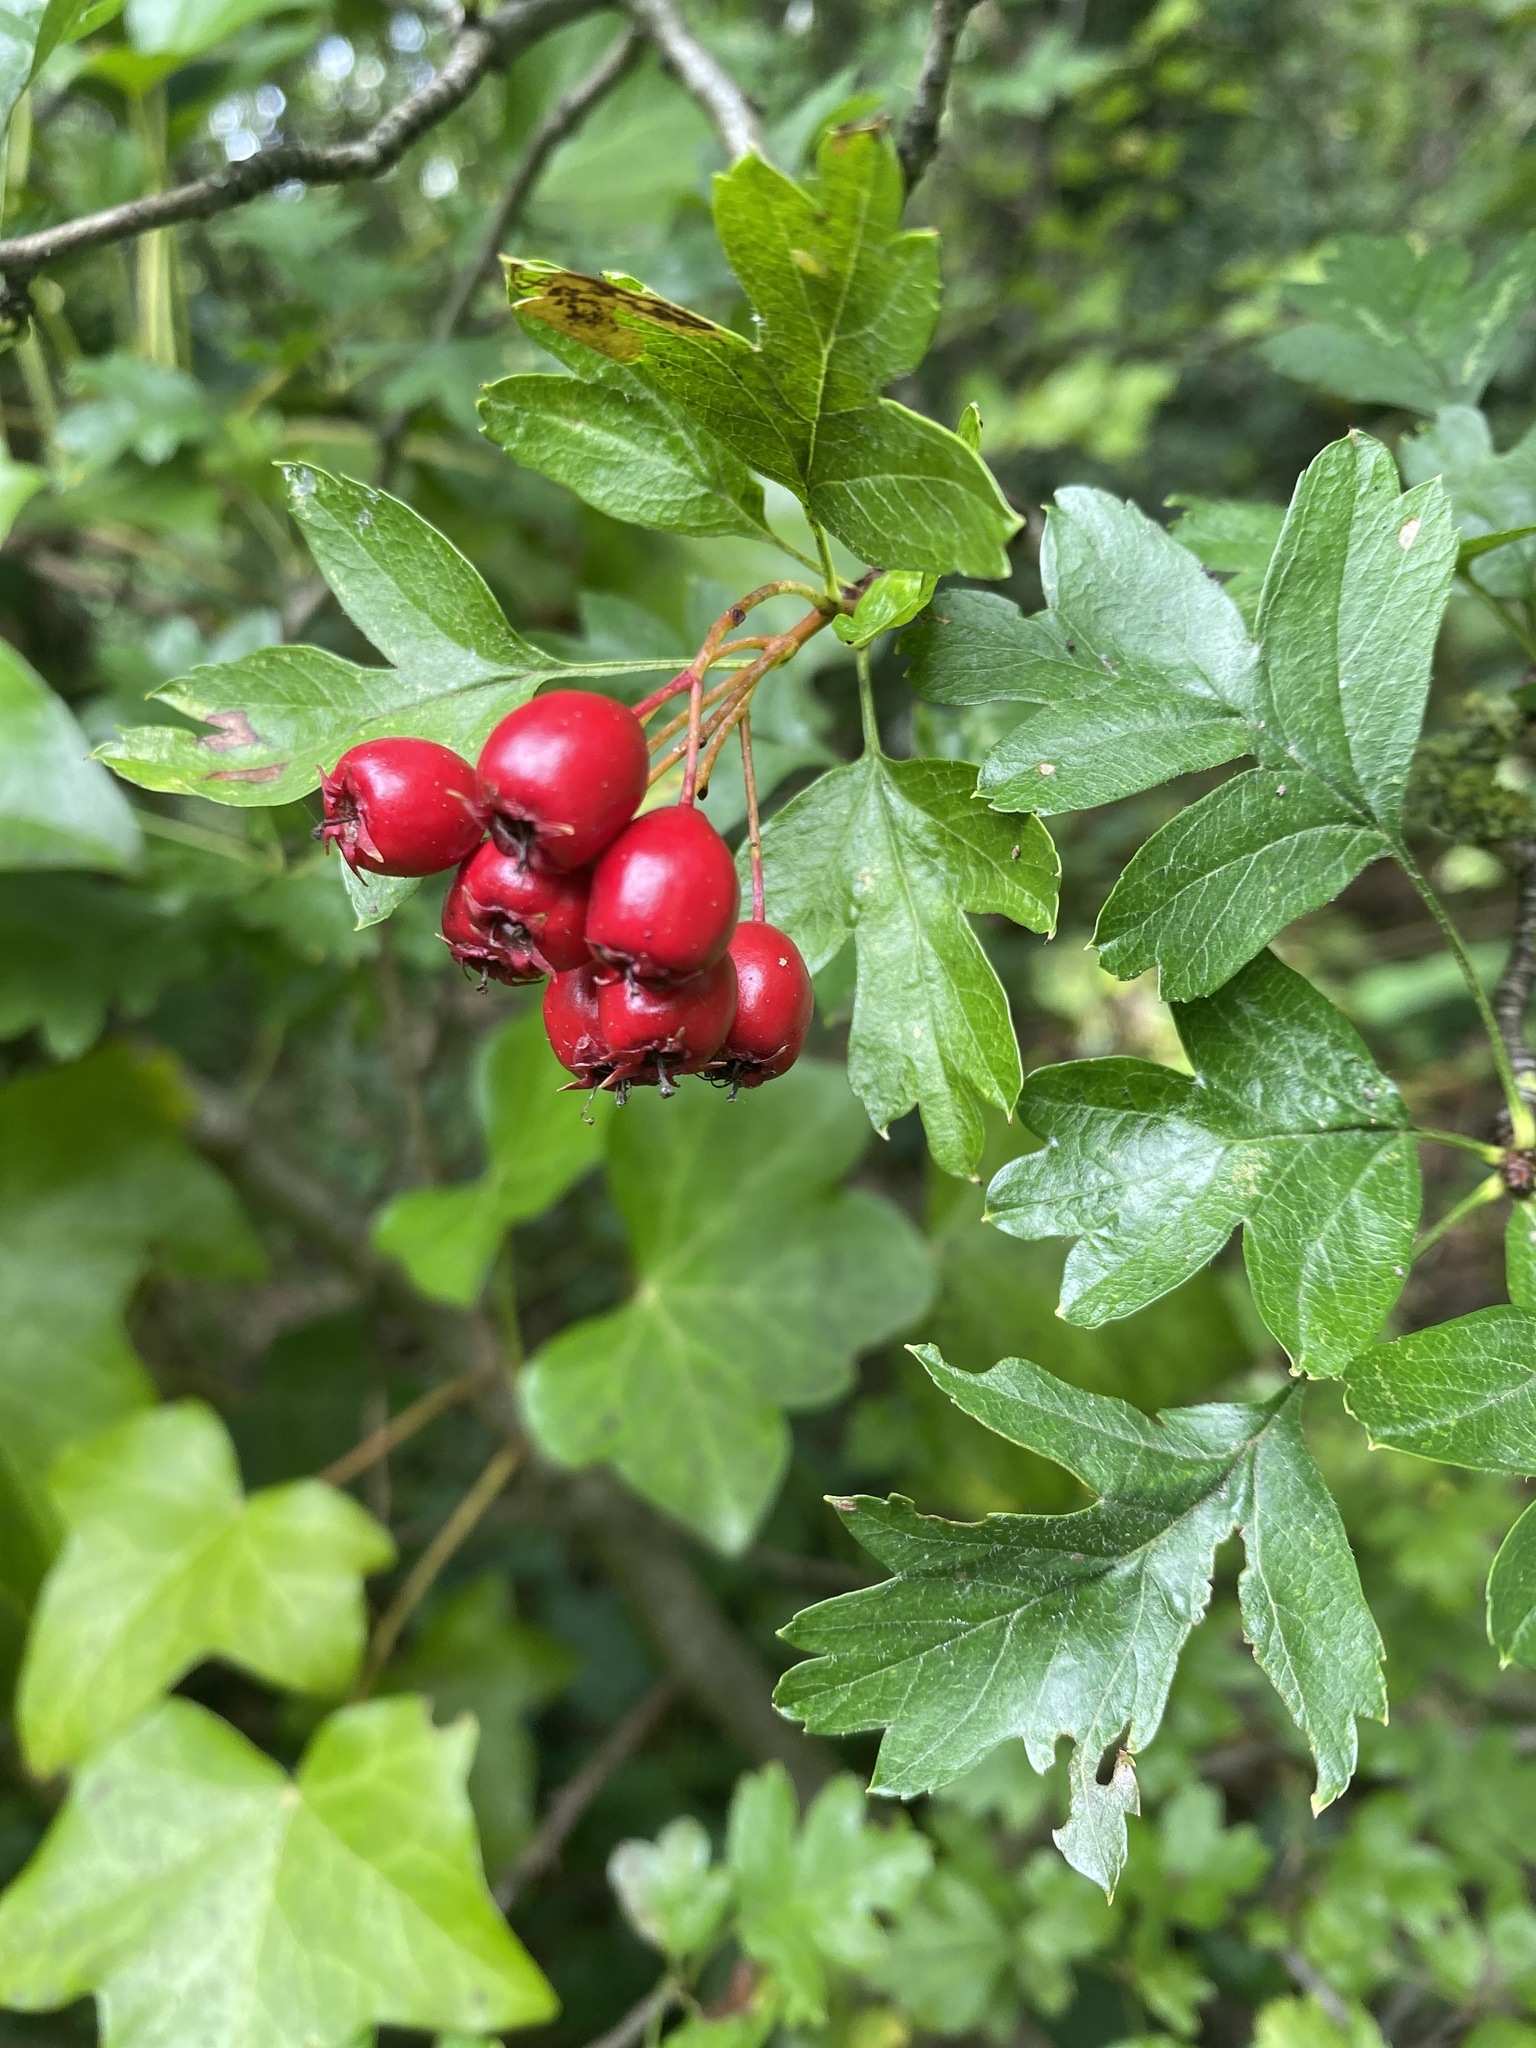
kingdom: Plantae
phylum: Tracheophyta
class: Magnoliopsida
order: Rosales
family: Rosaceae
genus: Crataegus
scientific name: Crataegus monogyna
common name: Hawthorn
